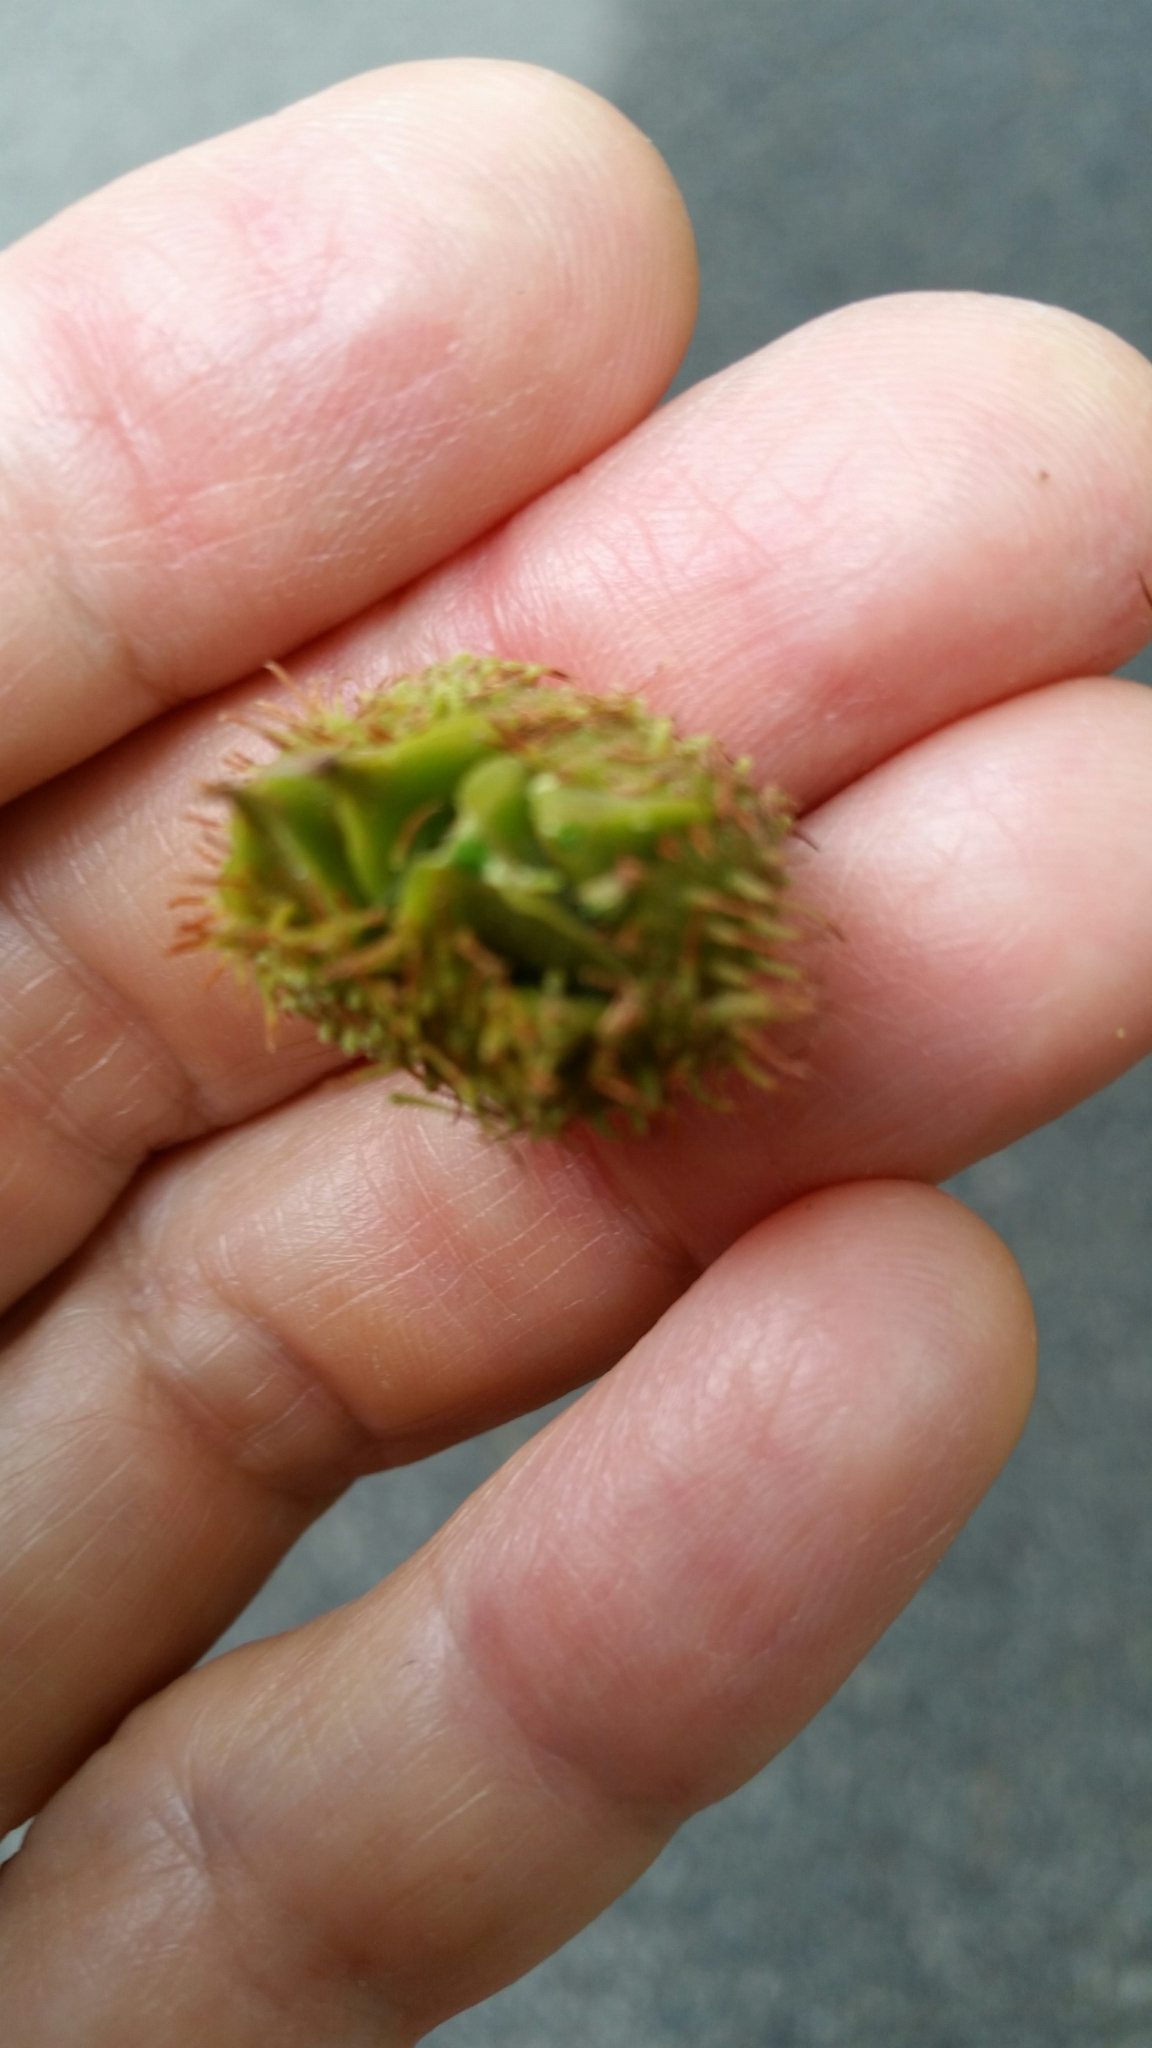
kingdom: Plantae
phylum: Tracheophyta
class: Magnoliopsida
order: Fagales
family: Fagaceae
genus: Fagus
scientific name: Fagus grandifolia
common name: American beech
